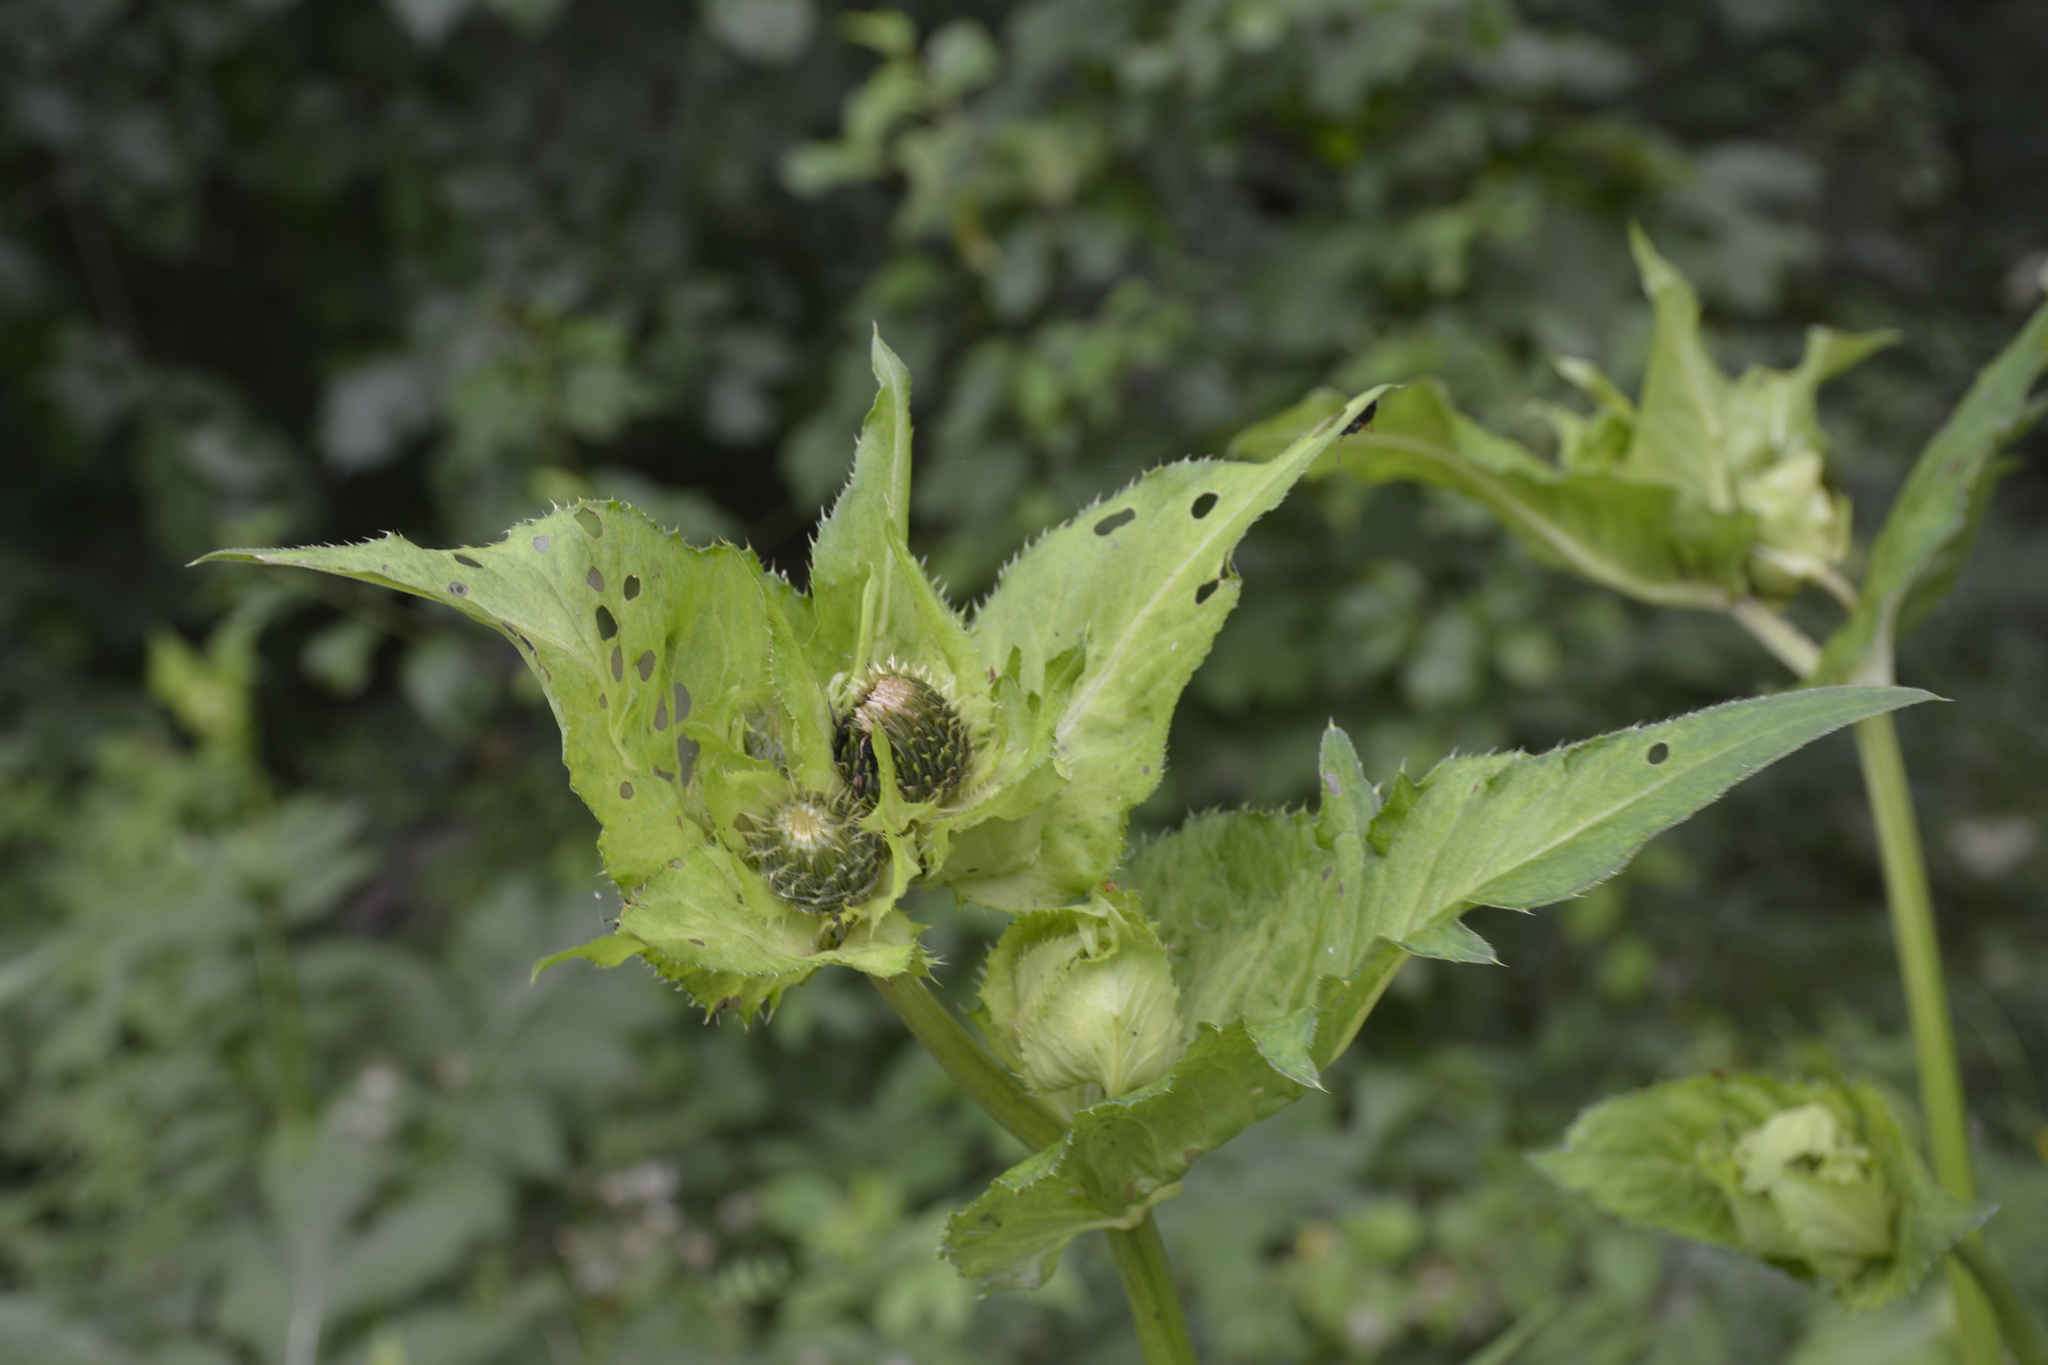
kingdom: Plantae
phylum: Tracheophyta
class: Magnoliopsida
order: Asterales
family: Asteraceae
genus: Cirsium
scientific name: Cirsium oleraceum
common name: Cabbage thistle
